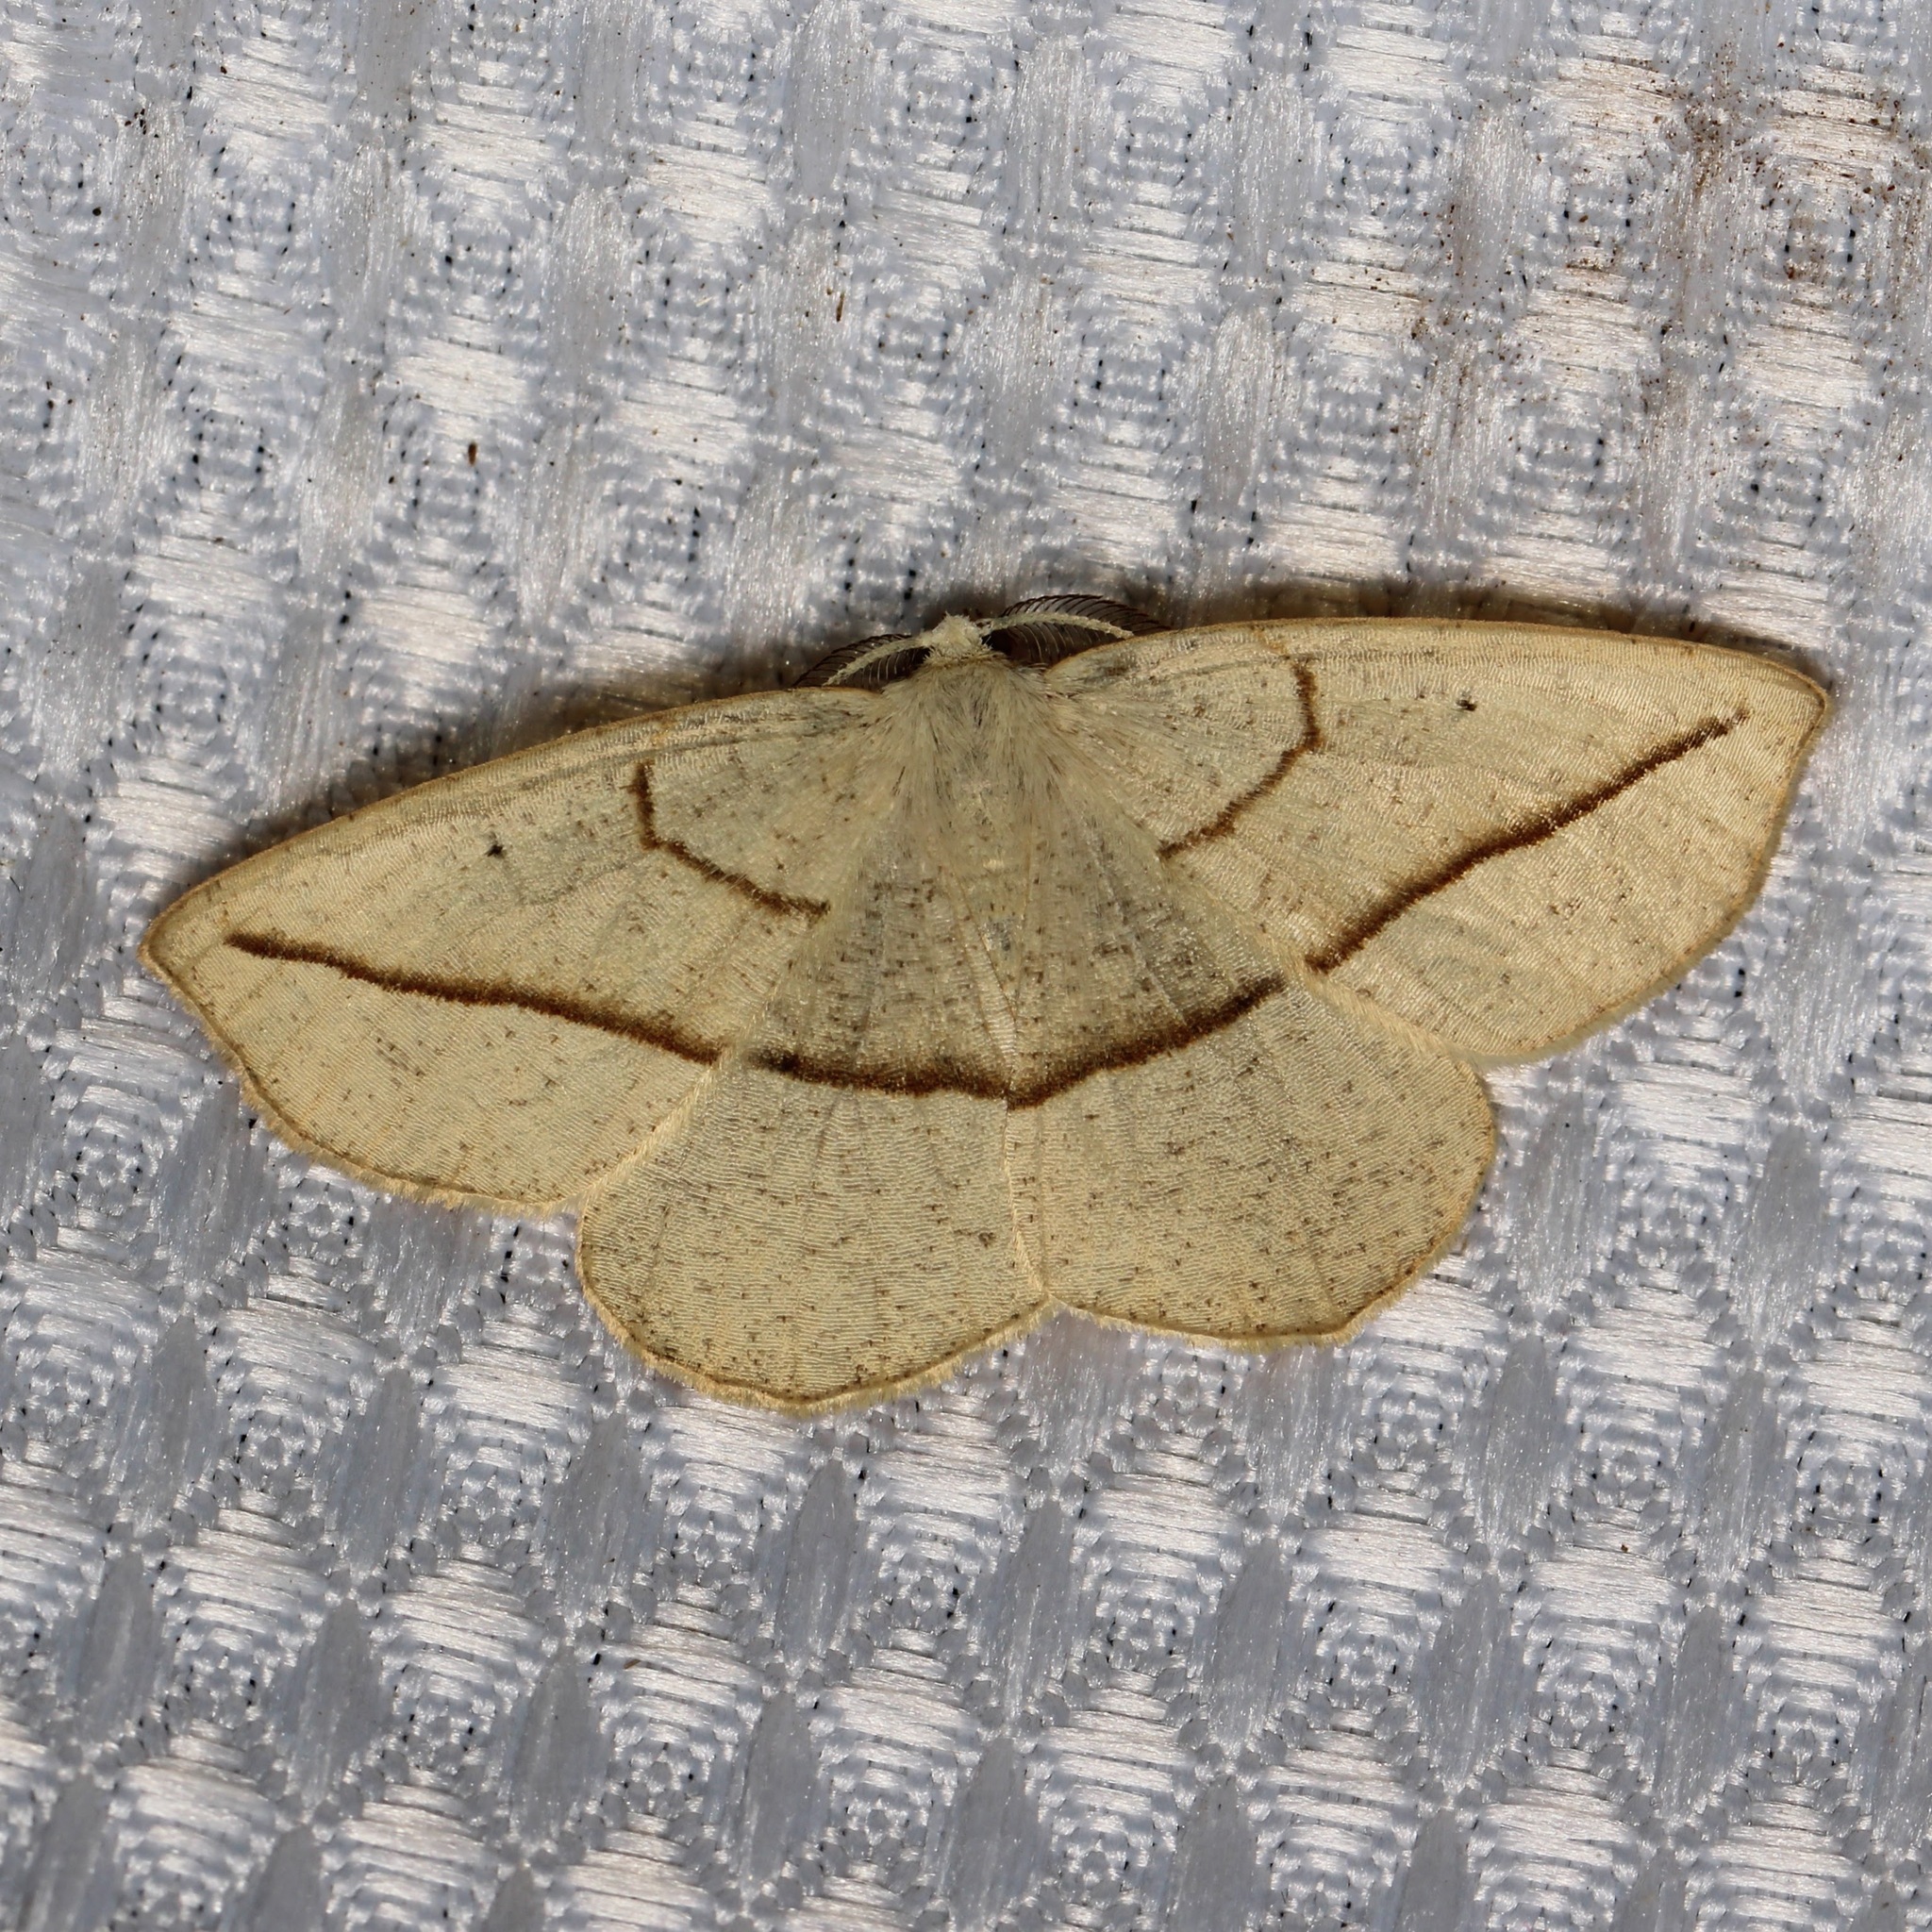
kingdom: Animalia
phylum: Arthropoda
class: Insecta
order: Lepidoptera
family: Geometridae
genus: Eusarca
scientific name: Eusarca confusaria
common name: Confused eusarca
